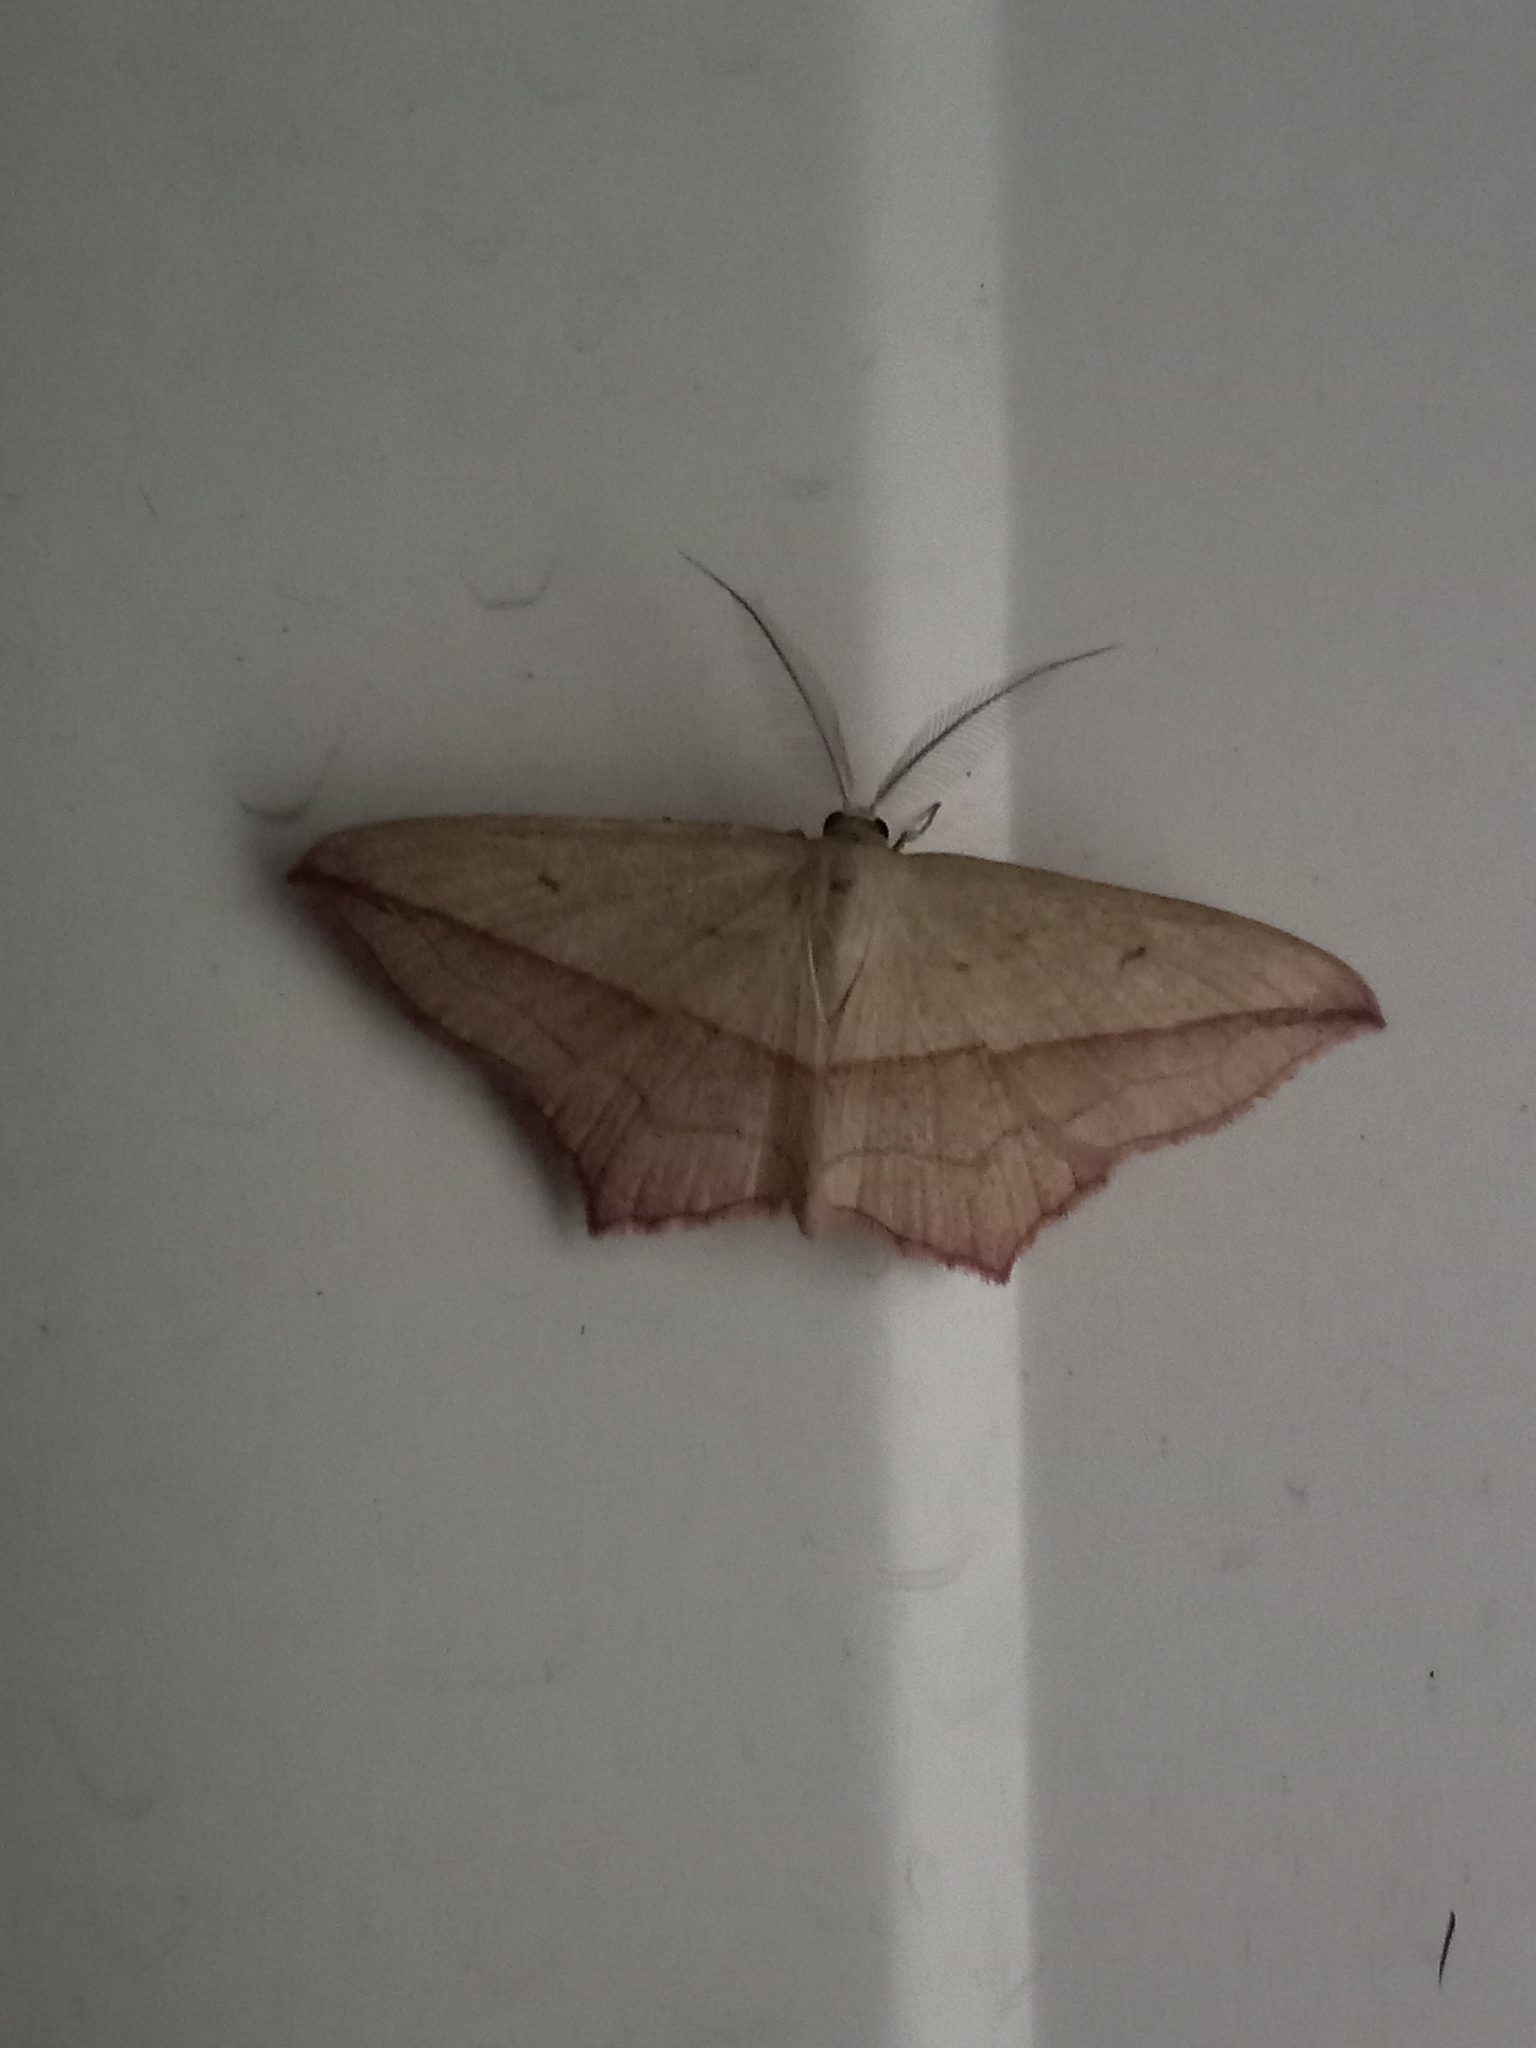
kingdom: Animalia
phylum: Arthropoda
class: Insecta
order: Lepidoptera
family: Geometridae
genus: Timandra
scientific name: Timandra comae
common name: Blood-vein
